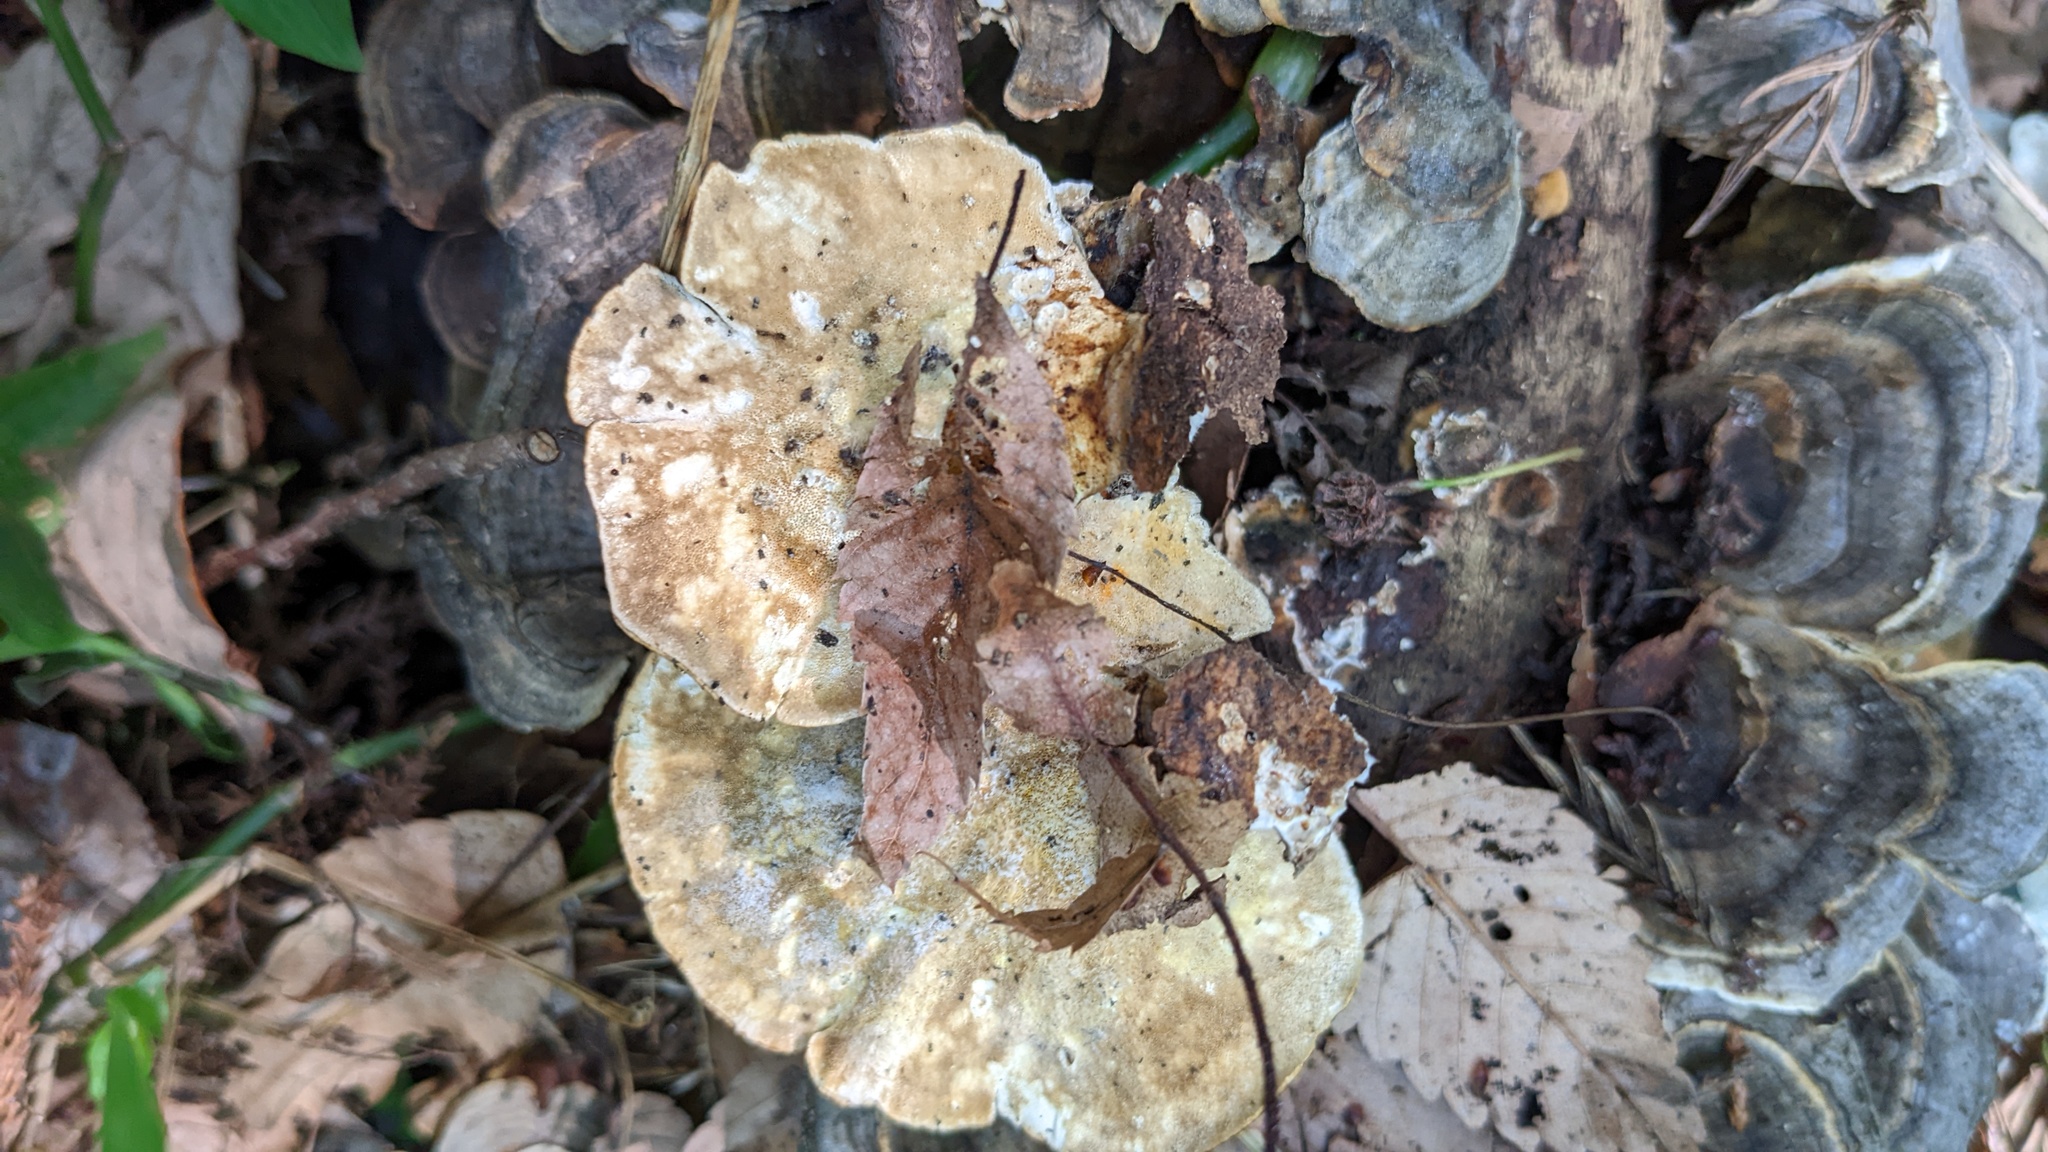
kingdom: Fungi
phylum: Basidiomycota
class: Agaricomycetes
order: Polyporales
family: Polyporaceae
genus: Trametes
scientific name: Trametes versicolor
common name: Turkeytail
